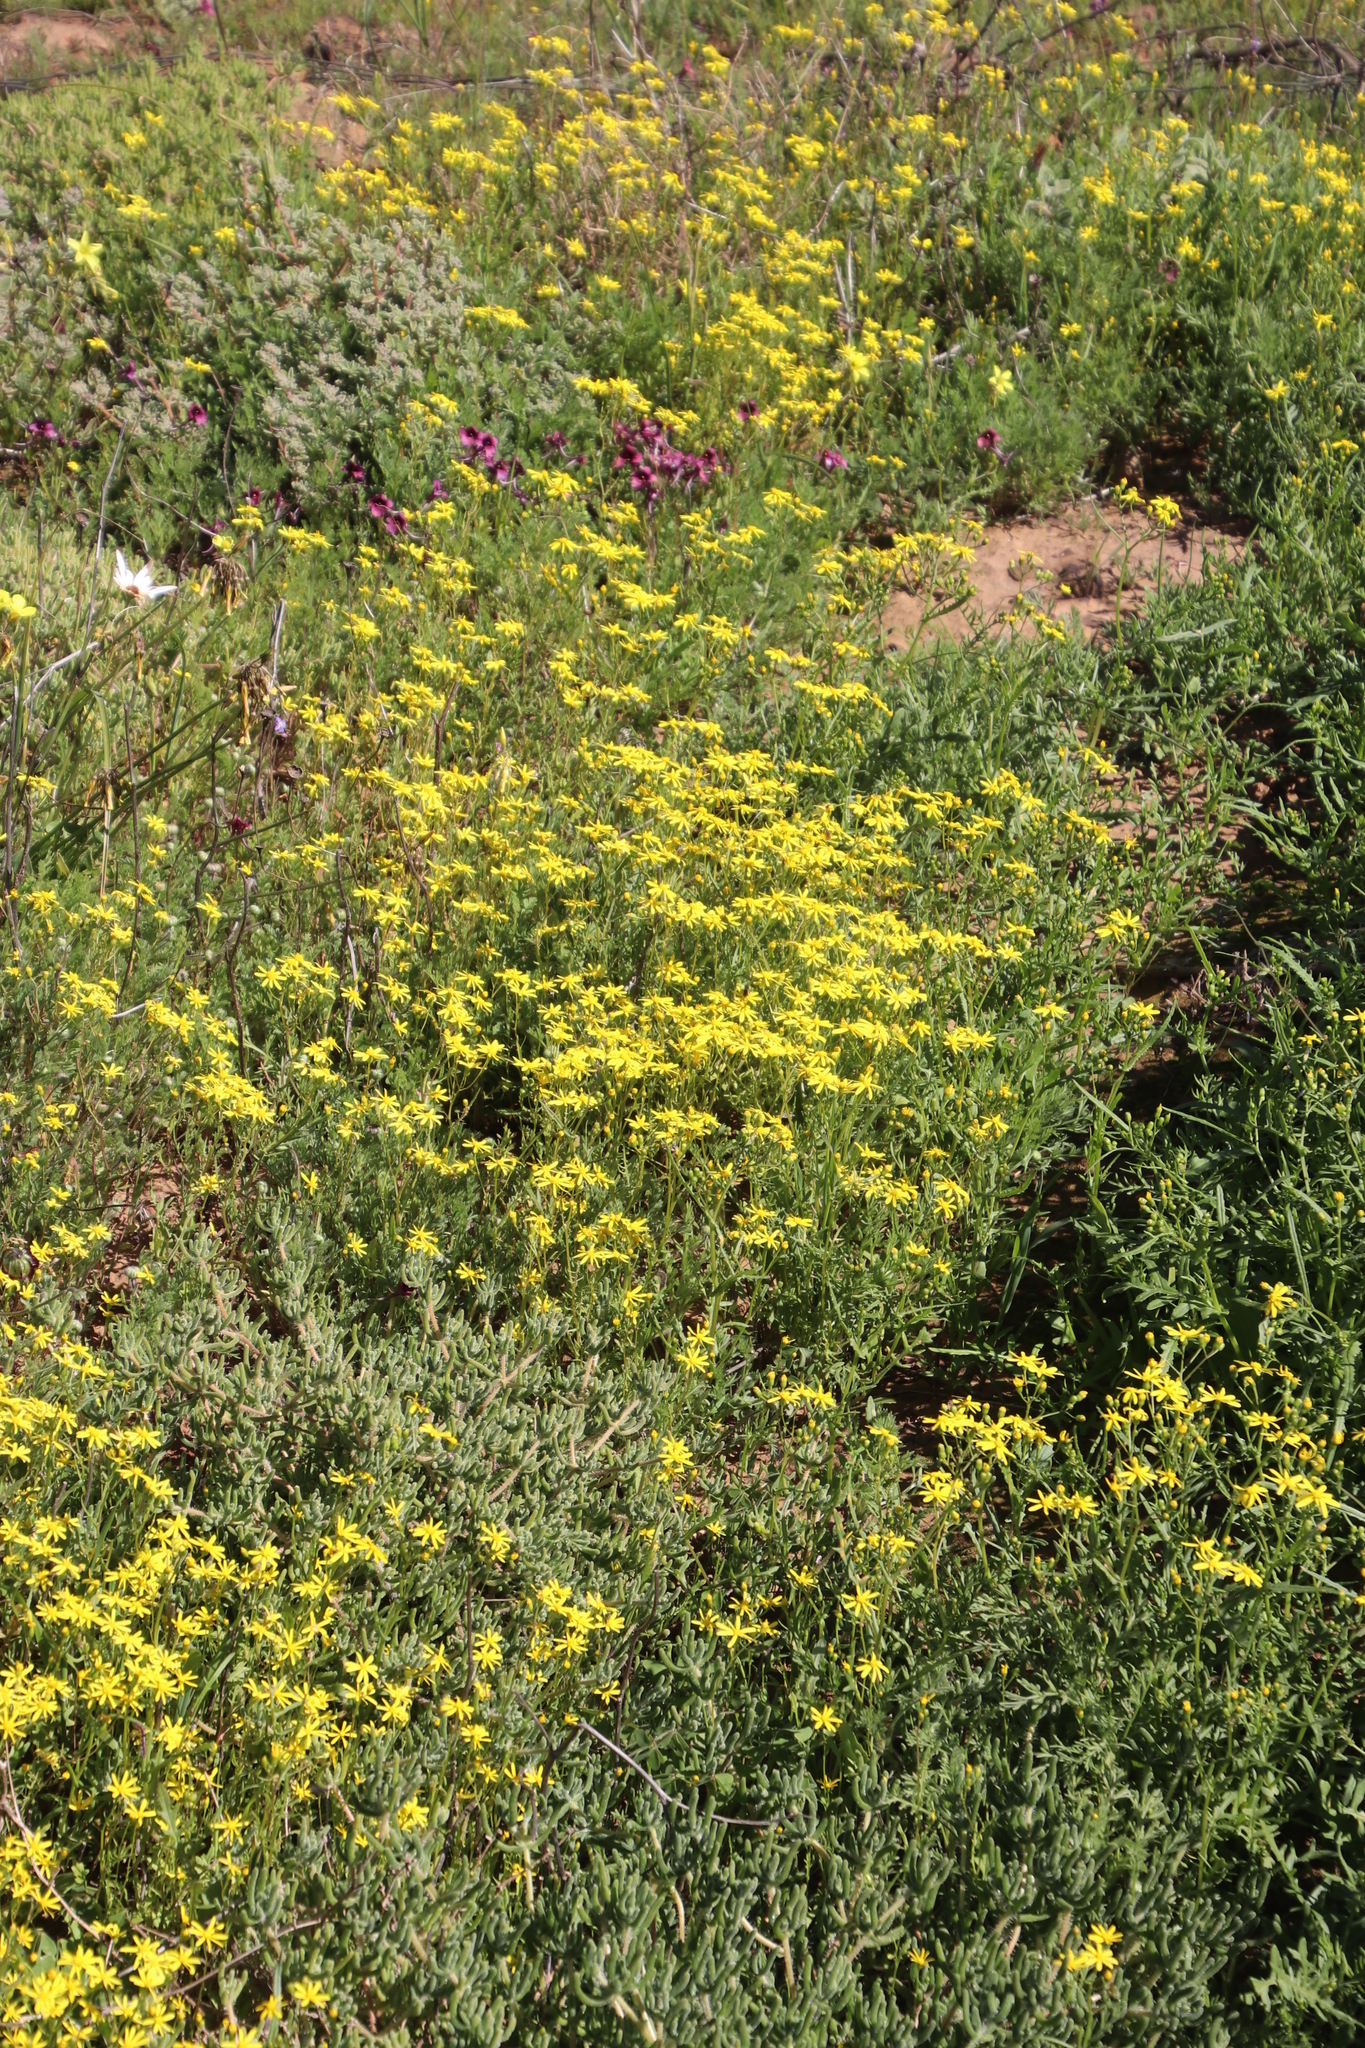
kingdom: Plantae
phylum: Tracheophyta
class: Magnoliopsida
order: Asterales
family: Asteraceae
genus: Senecio
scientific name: Senecio abruptus
